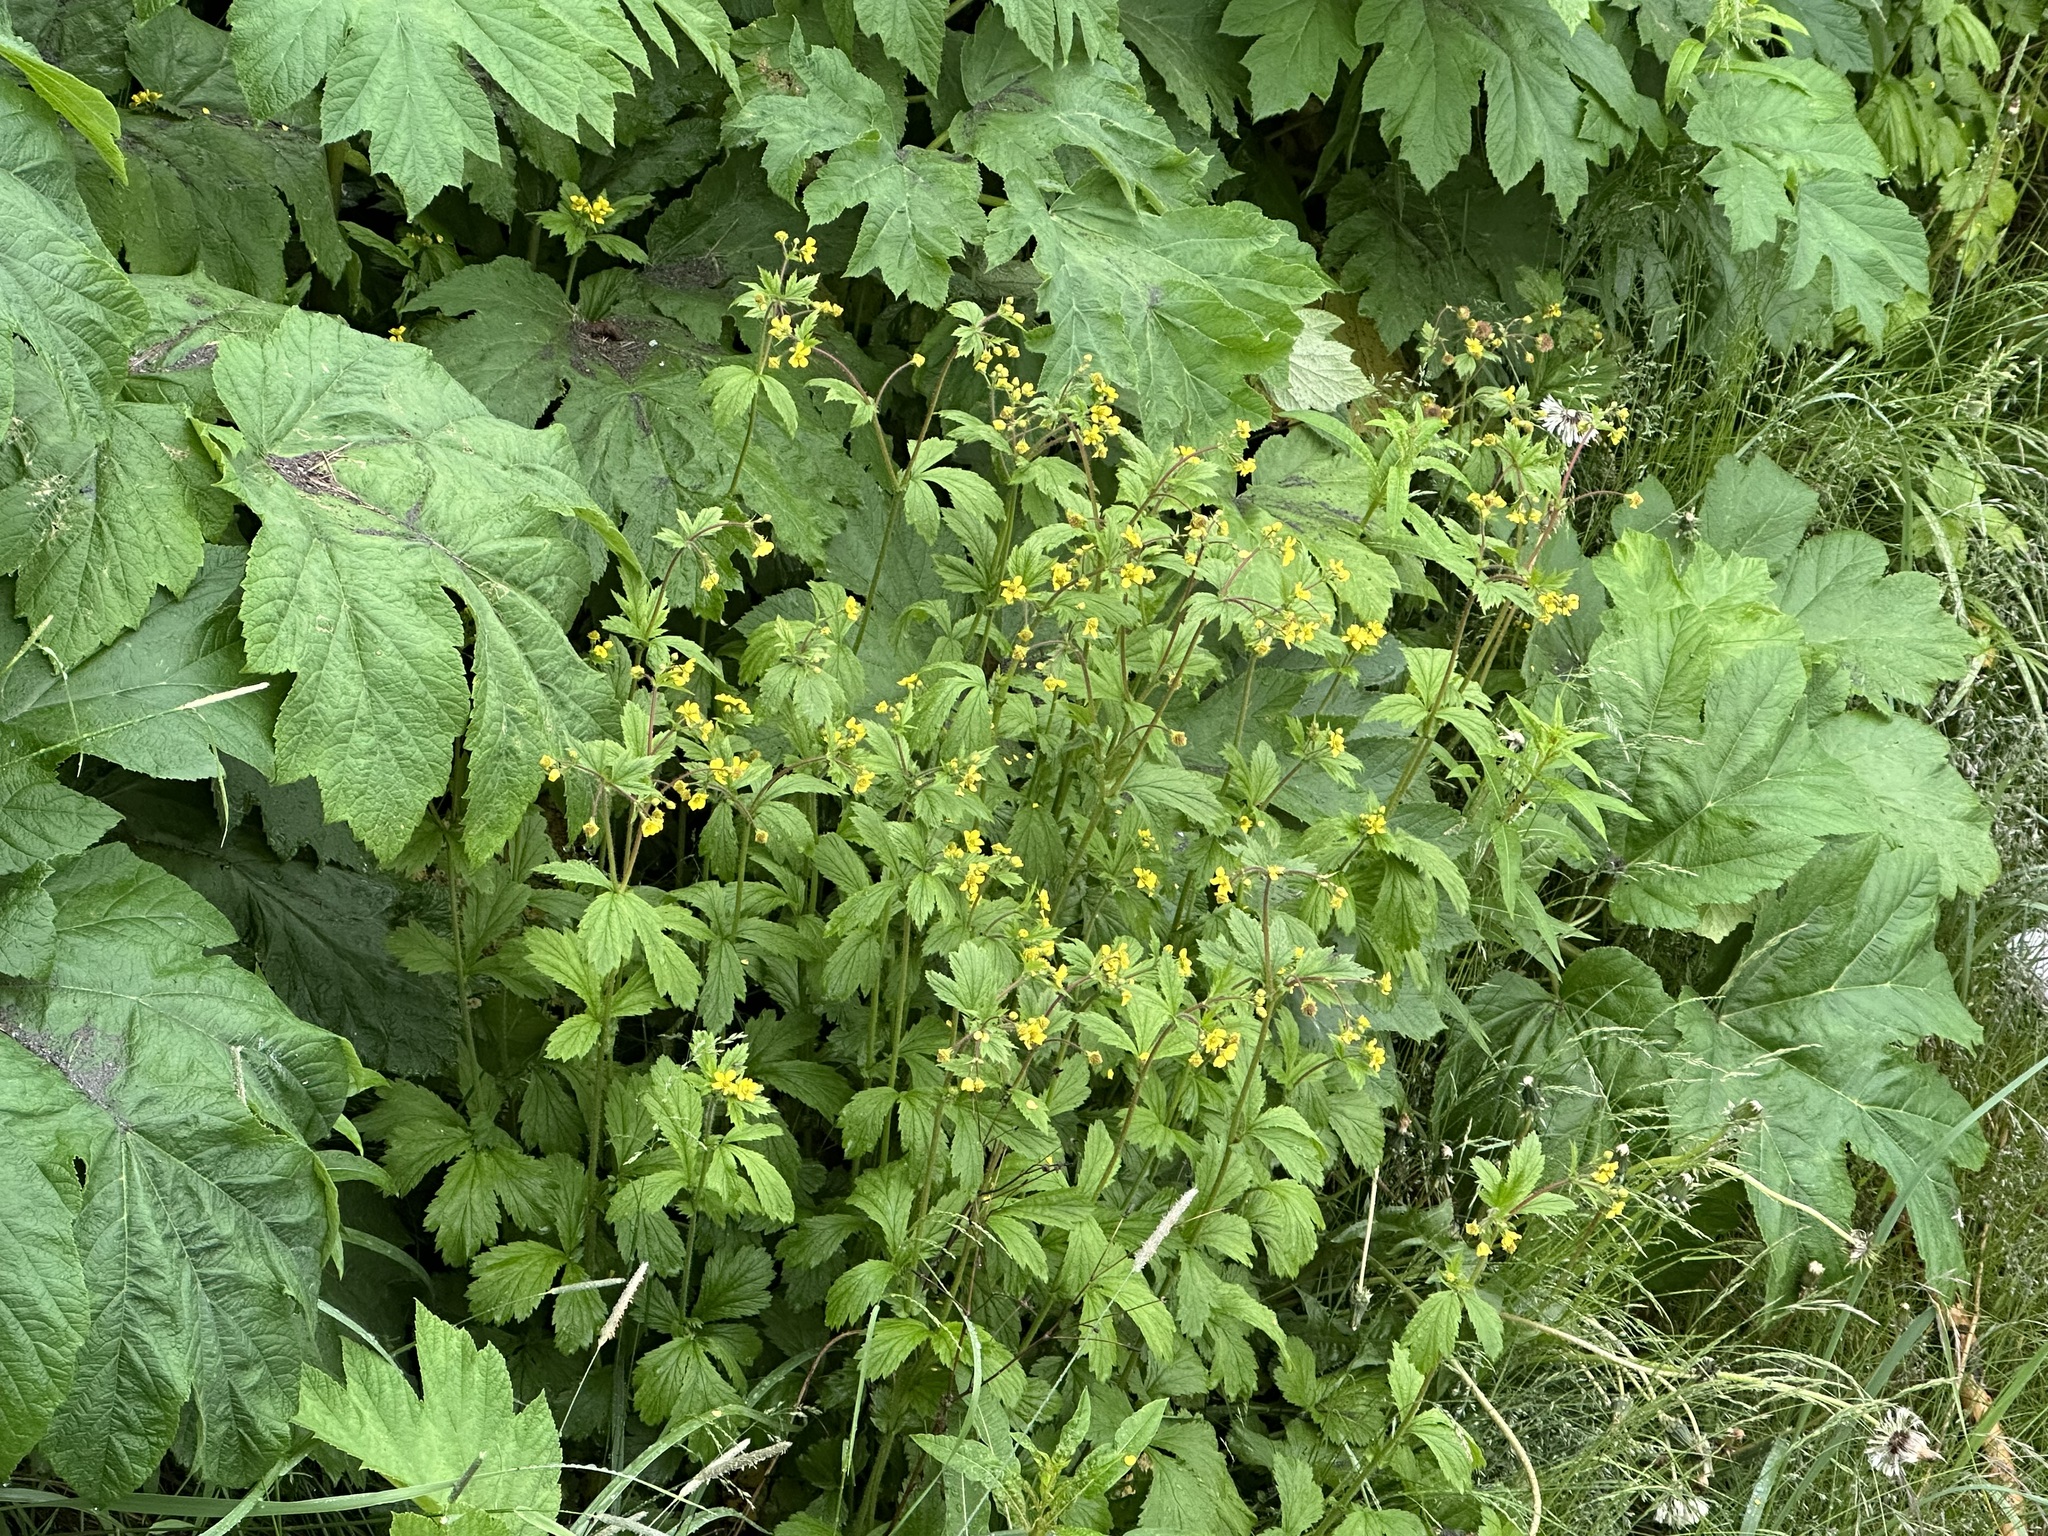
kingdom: Plantae
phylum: Tracheophyta
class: Magnoliopsida
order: Rosales
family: Rosaceae
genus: Geum
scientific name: Geum macrophyllum
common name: Large-leaved avens
